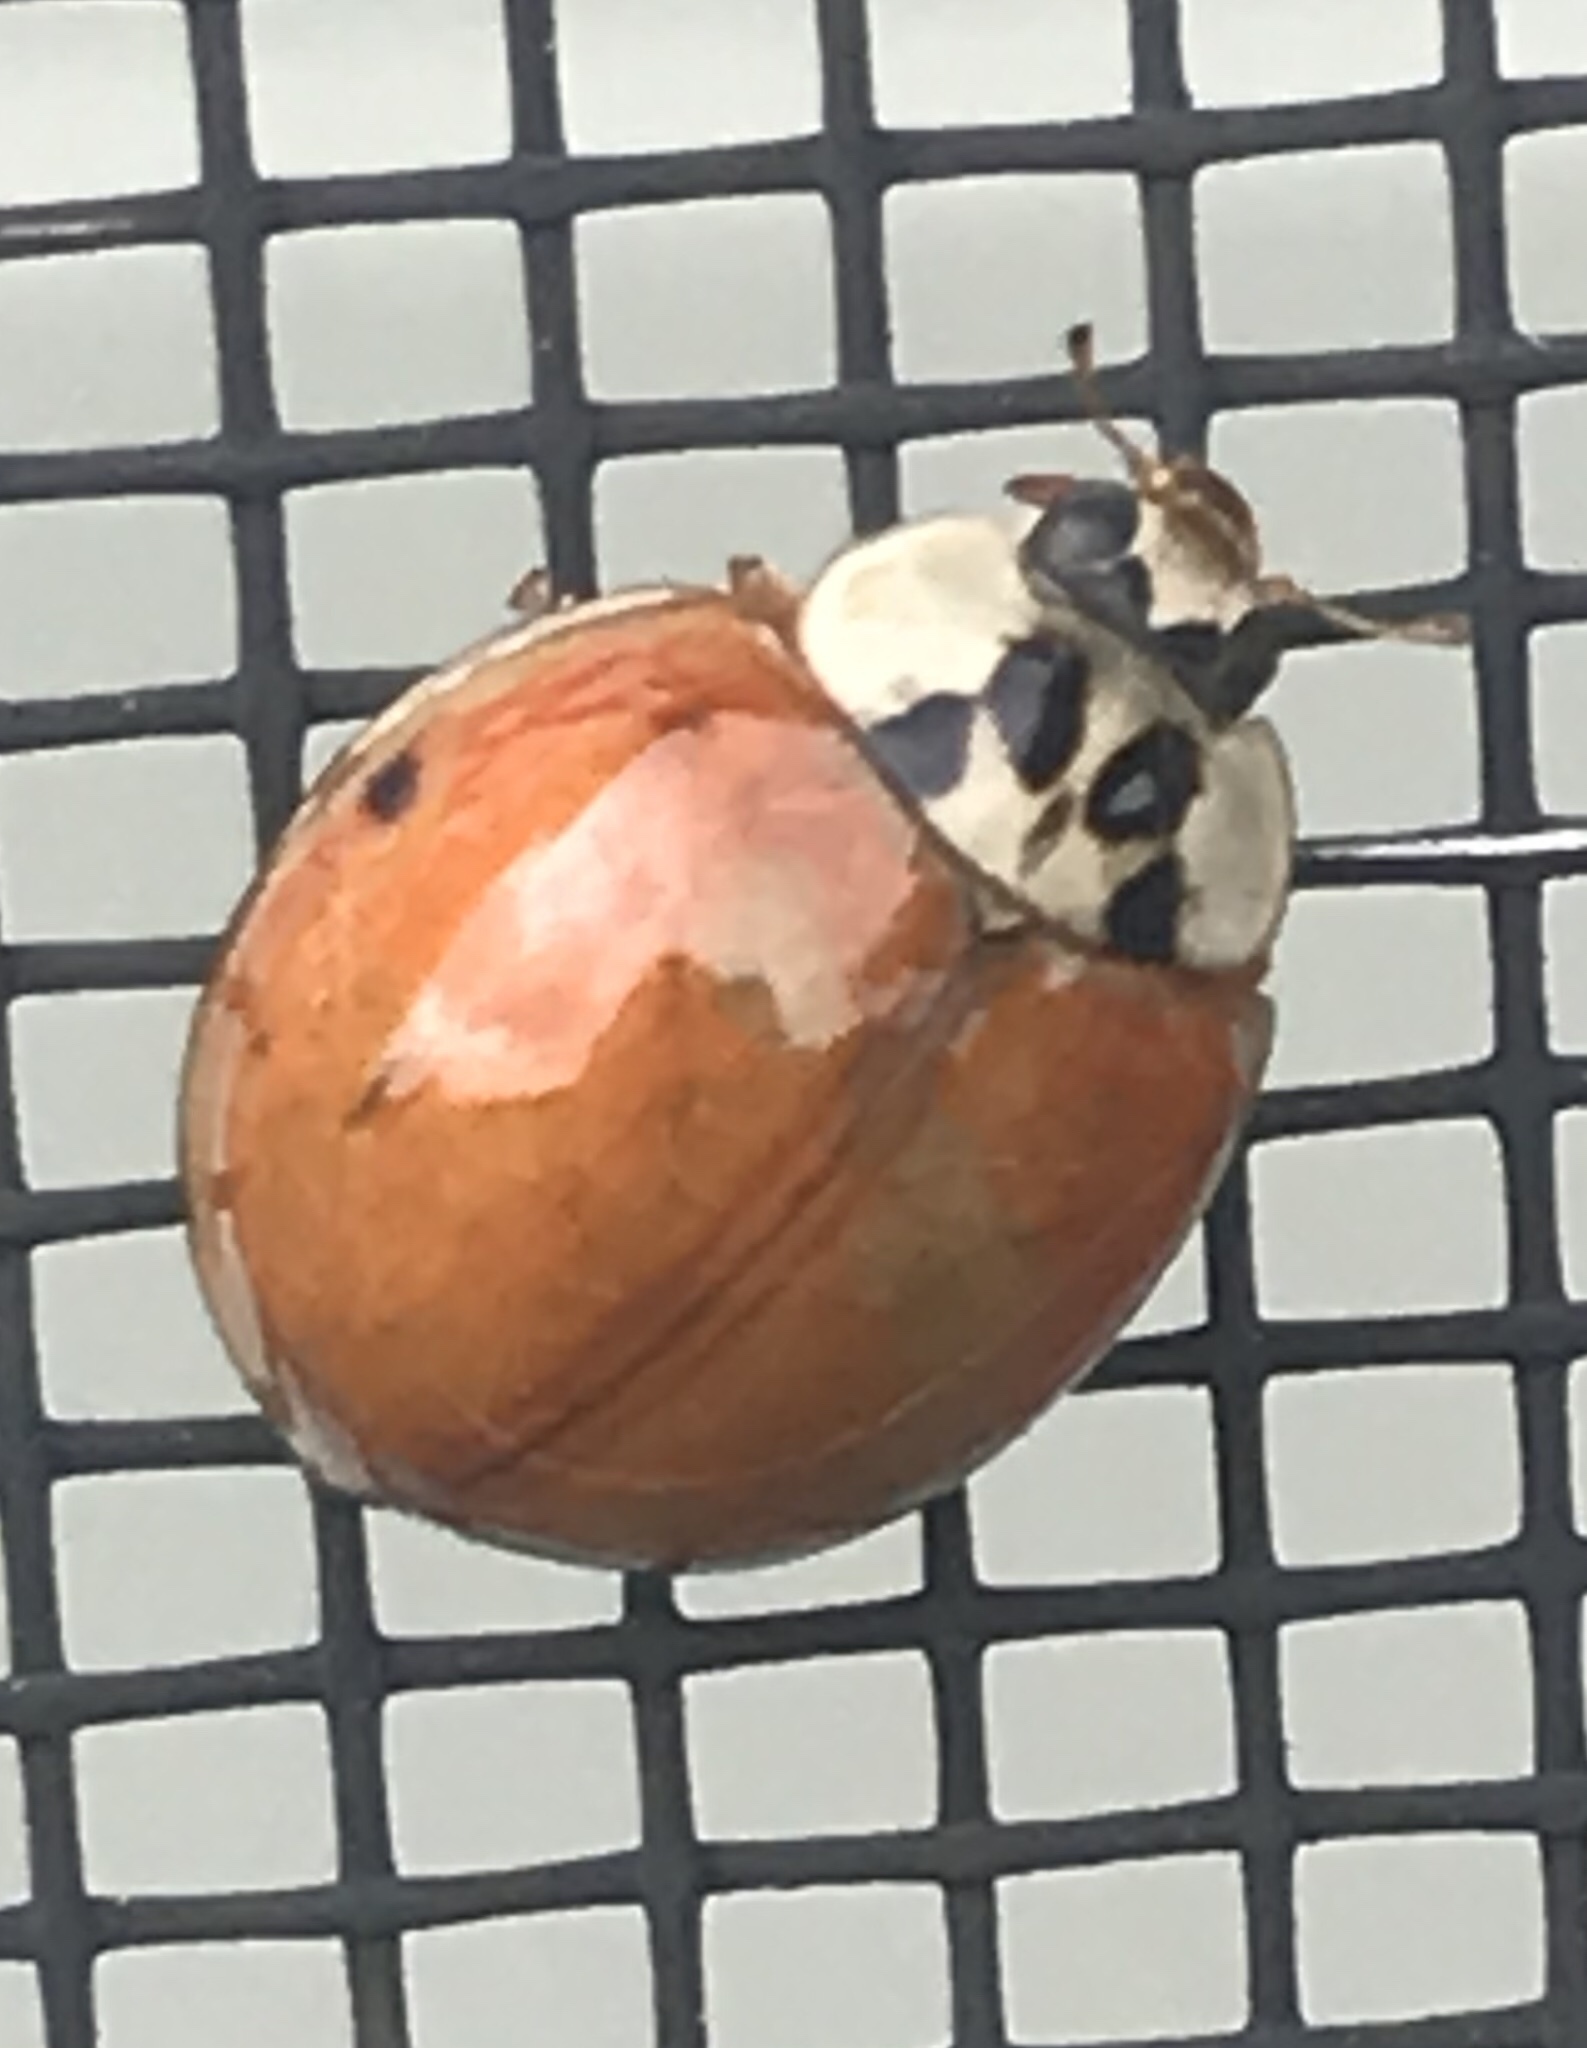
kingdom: Animalia
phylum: Arthropoda
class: Insecta
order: Coleoptera
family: Coccinellidae
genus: Harmonia
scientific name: Harmonia axyridis
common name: Harlequin ladybird
